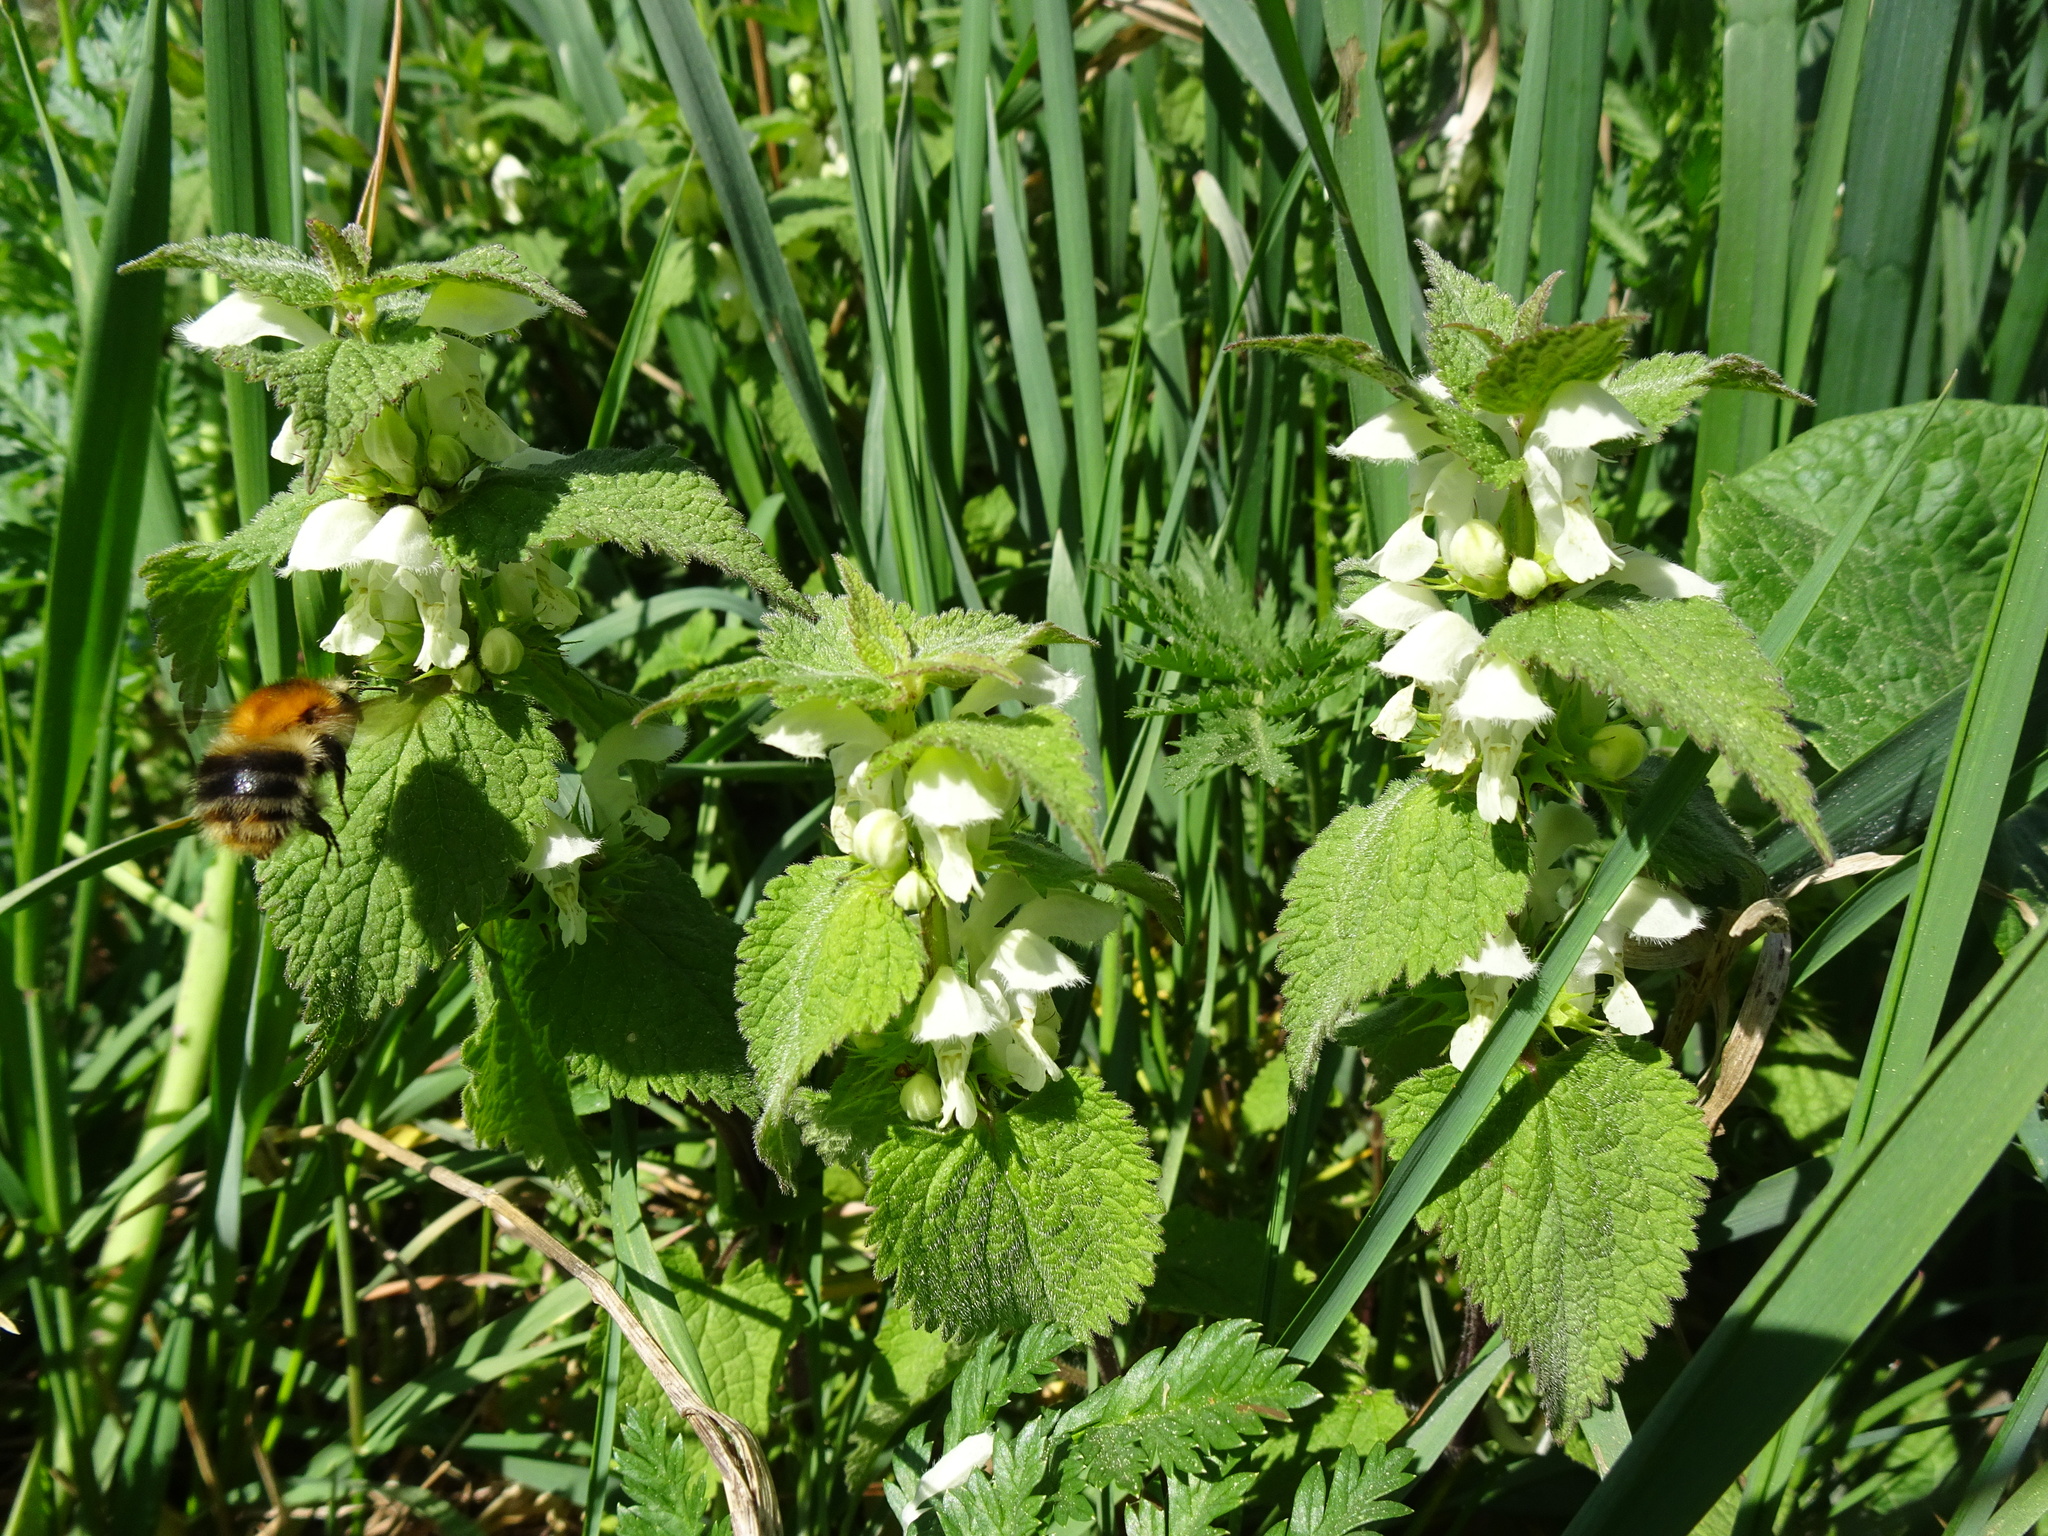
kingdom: Plantae
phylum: Tracheophyta
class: Magnoliopsida
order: Lamiales
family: Lamiaceae
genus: Lamium
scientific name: Lamium album
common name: White dead-nettle
